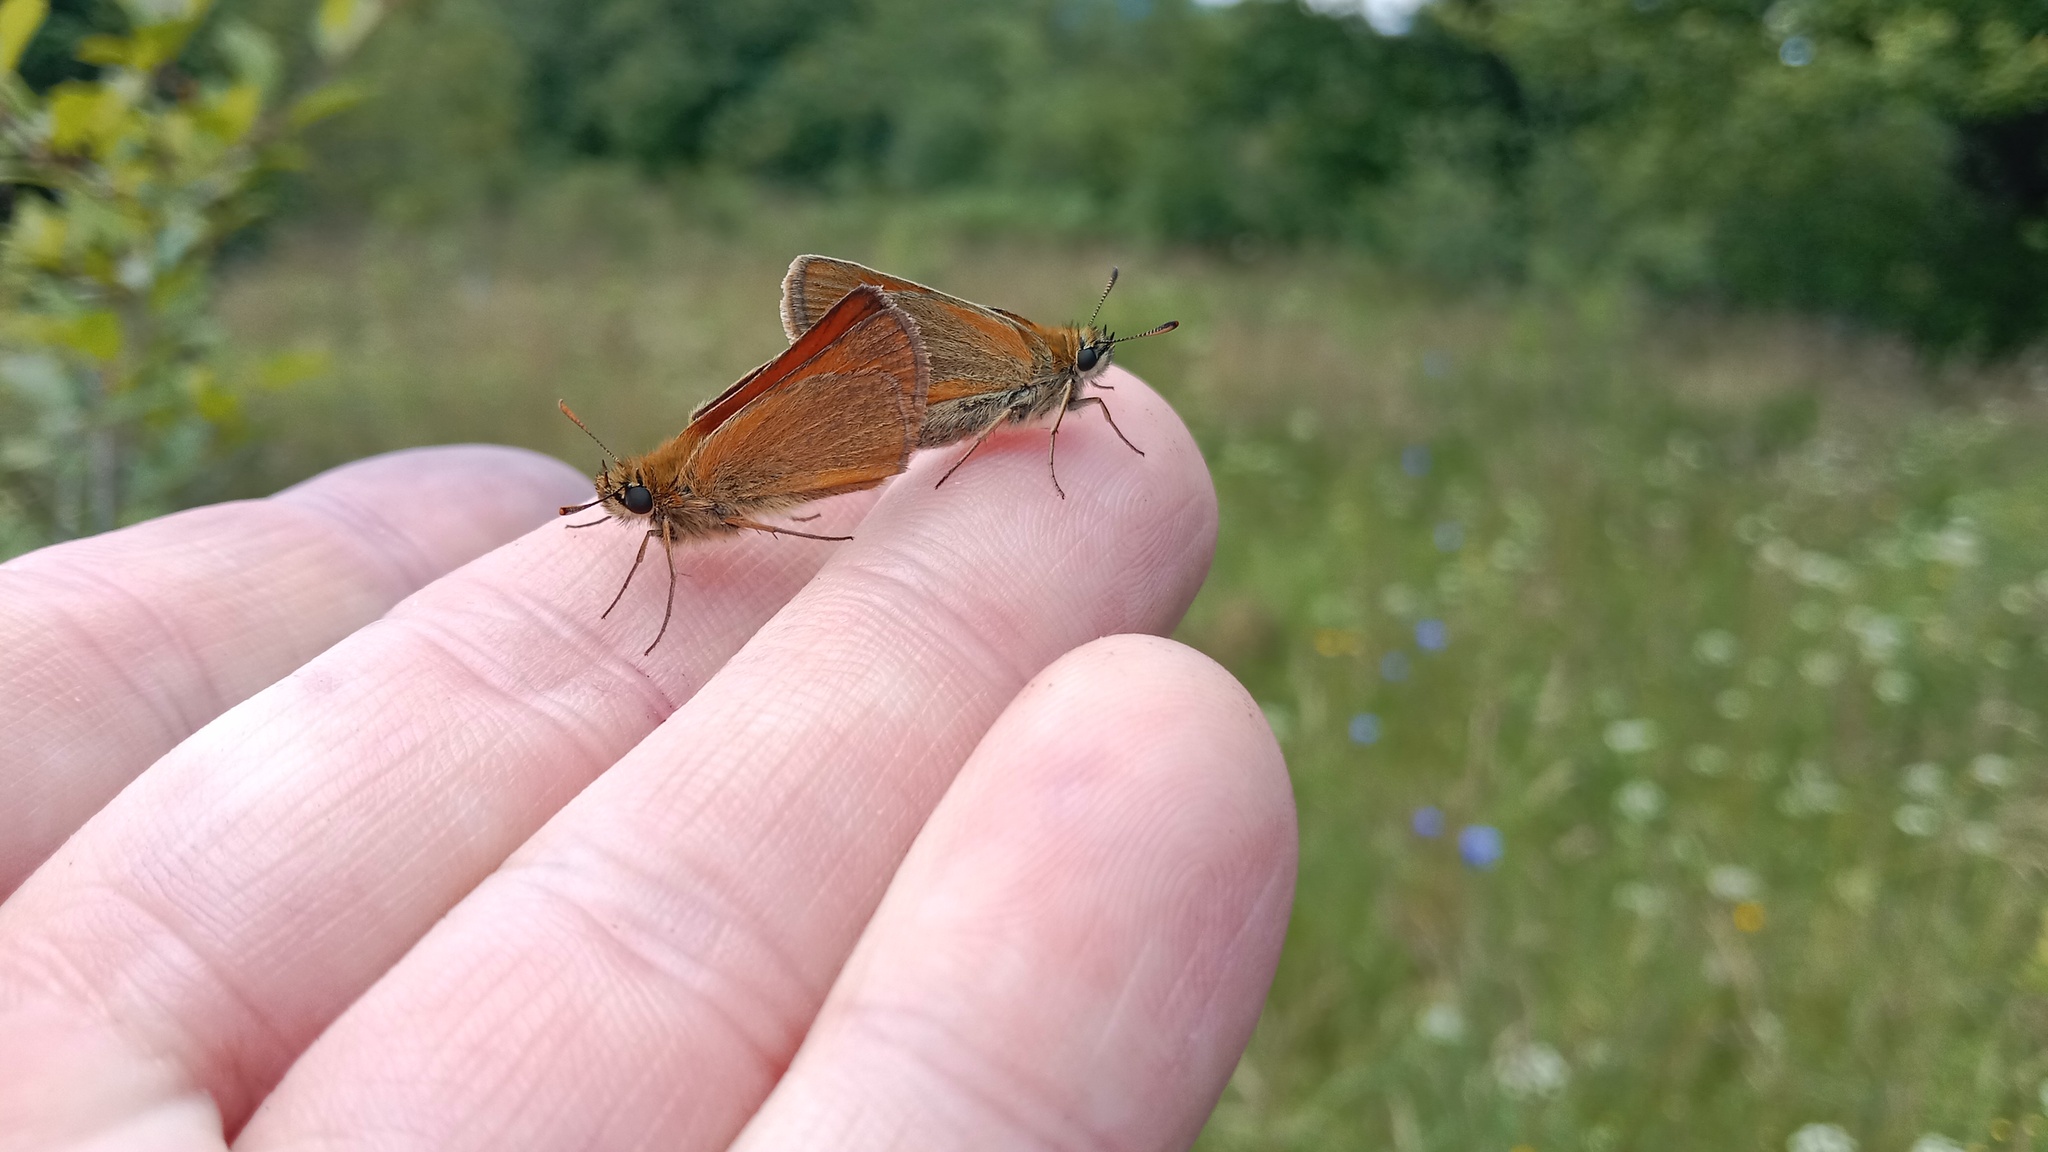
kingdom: Animalia
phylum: Arthropoda
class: Insecta
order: Lepidoptera
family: Hesperiidae
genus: Thymelicus
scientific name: Thymelicus sylvestris
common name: Small skipper
